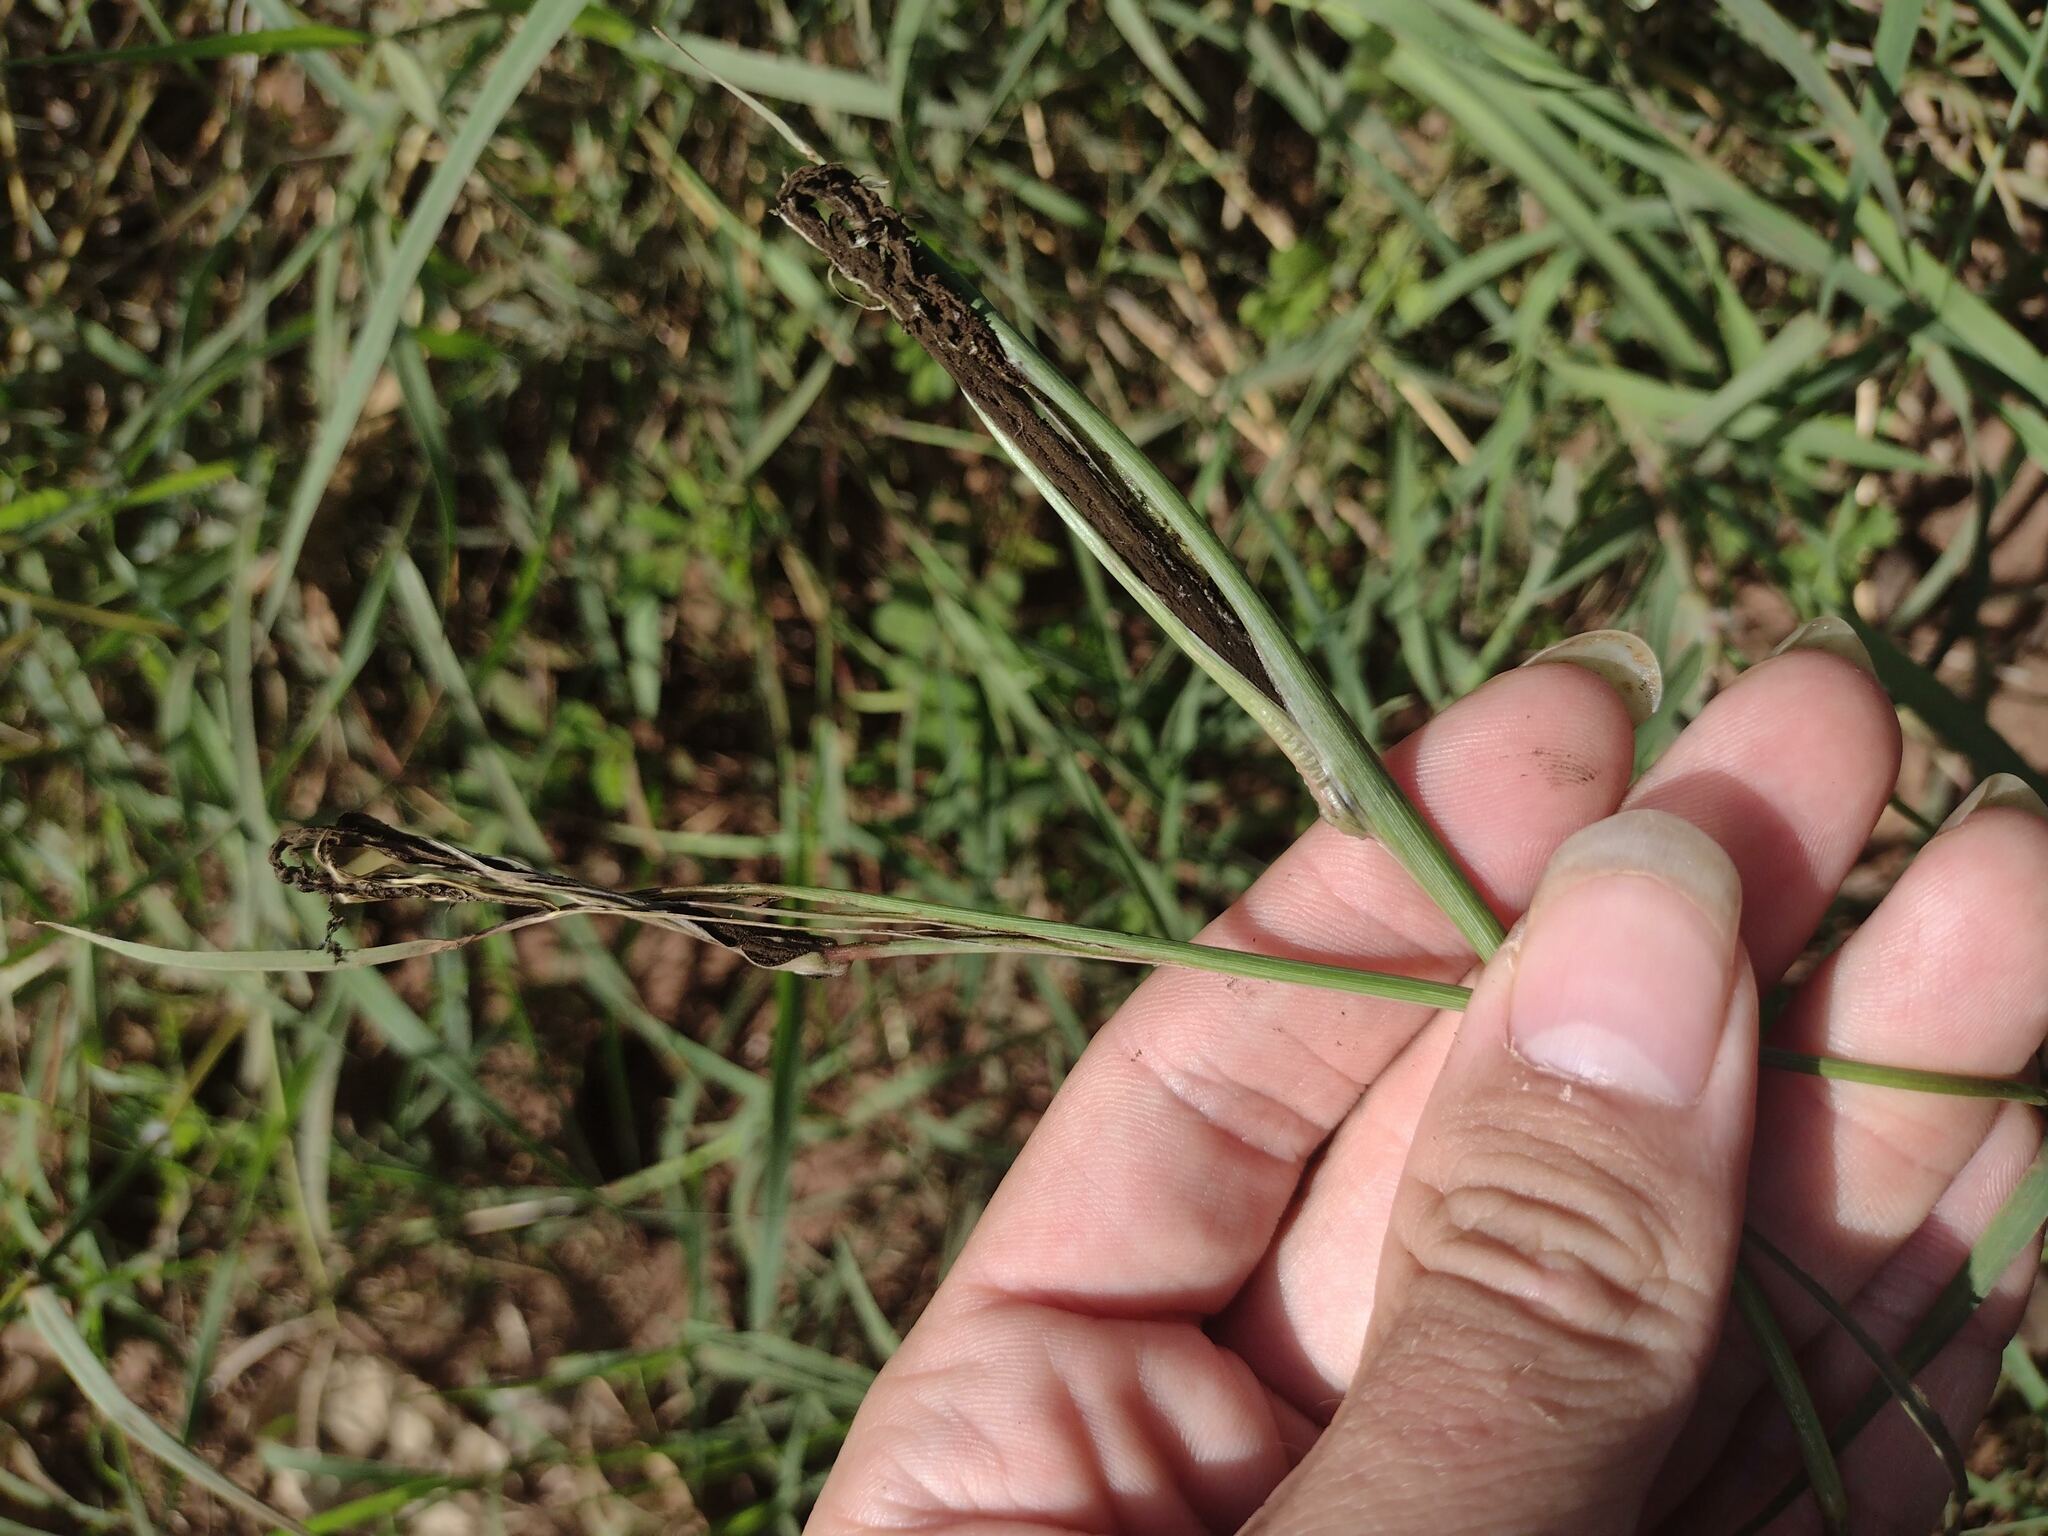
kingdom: Fungi
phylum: Basidiomycota
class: Ustilaginomycetes
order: Ustilaginales
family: Ustilaginaceae
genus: Ustilago
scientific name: Ustilago cynodontis
